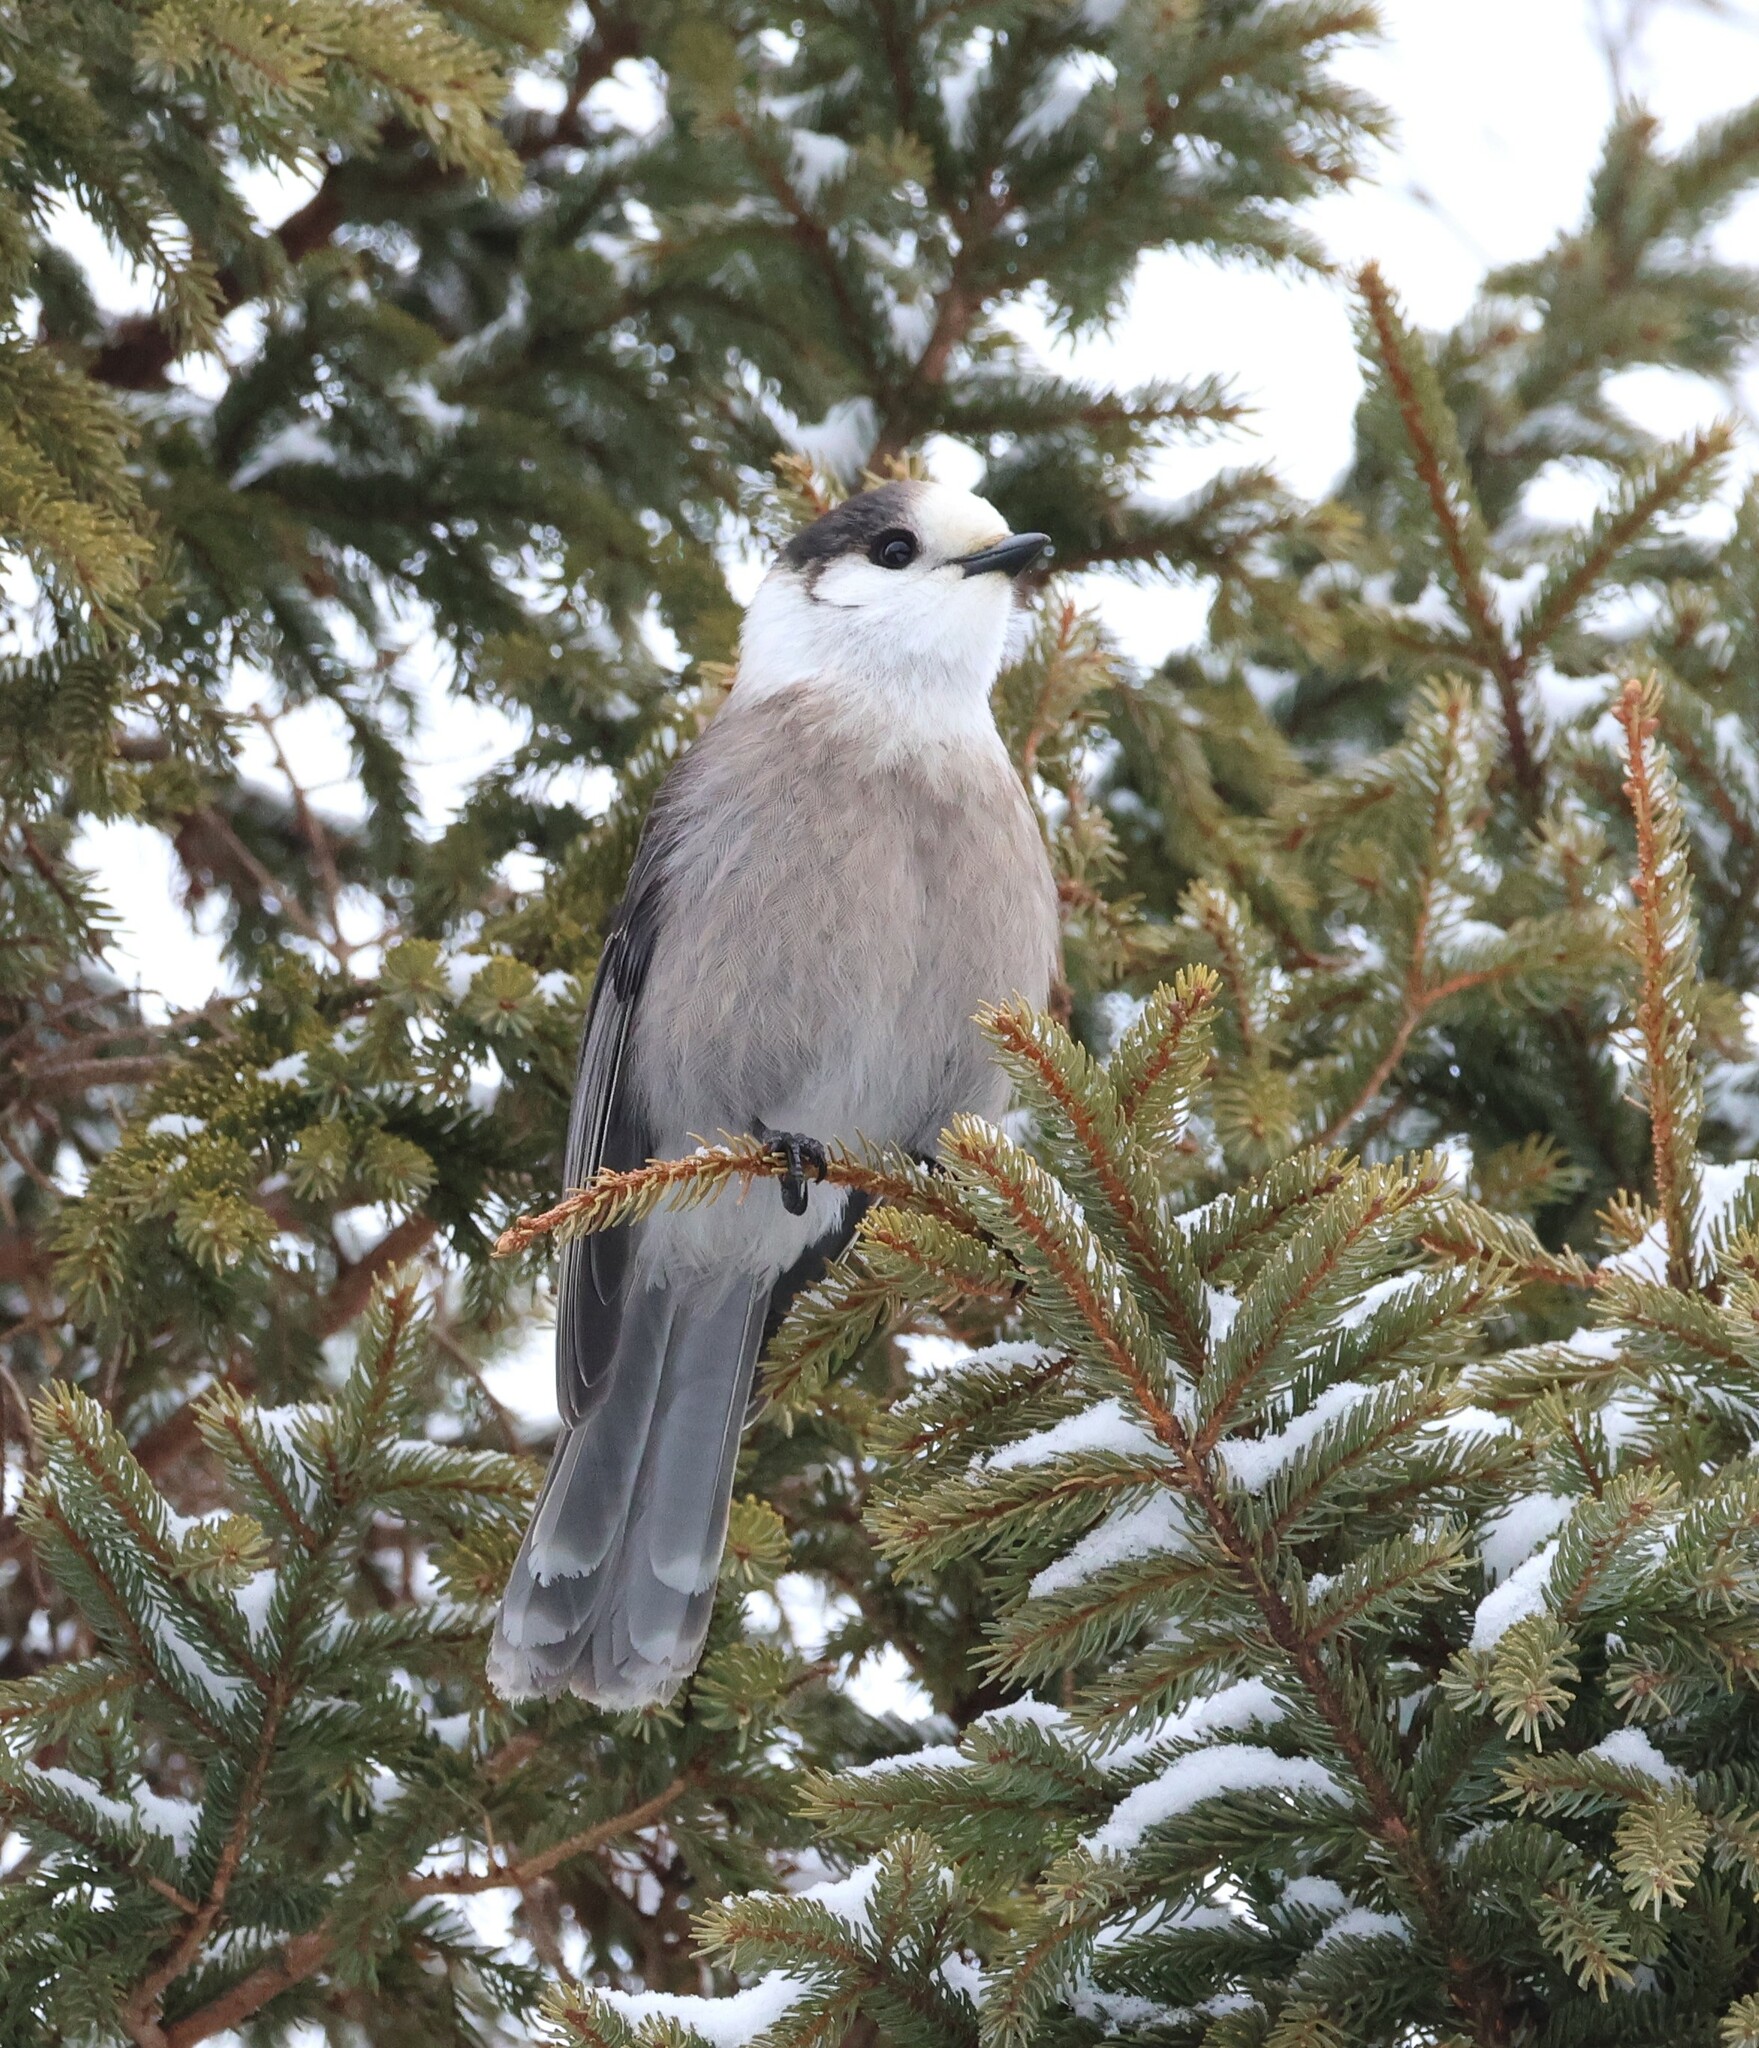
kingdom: Animalia
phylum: Chordata
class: Aves
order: Passeriformes
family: Corvidae
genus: Perisoreus
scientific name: Perisoreus canadensis
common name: Gray jay
